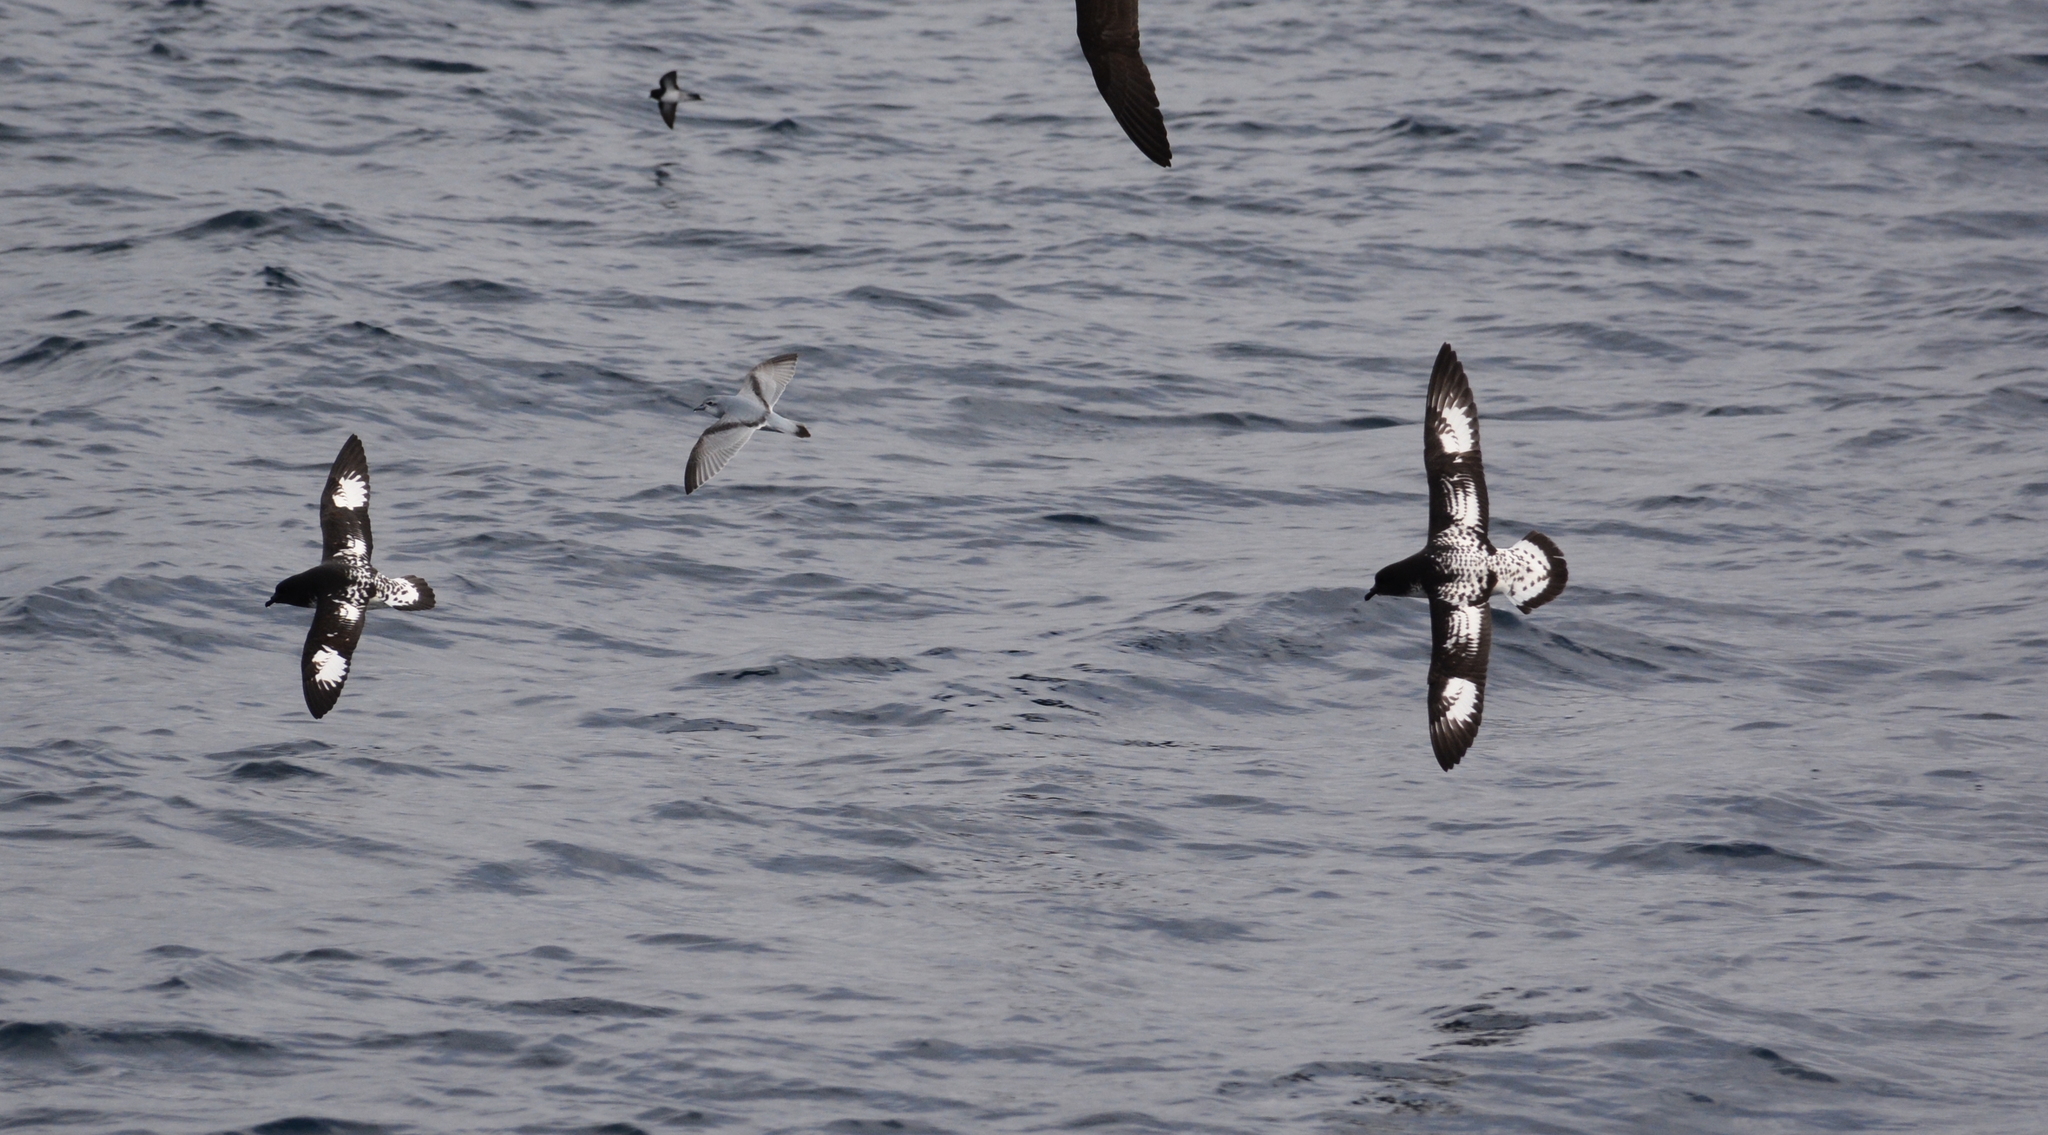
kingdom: Animalia
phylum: Chordata
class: Aves
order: Procellariiformes
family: Procellariidae
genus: Daption
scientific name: Daption capense
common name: Cape petrel
